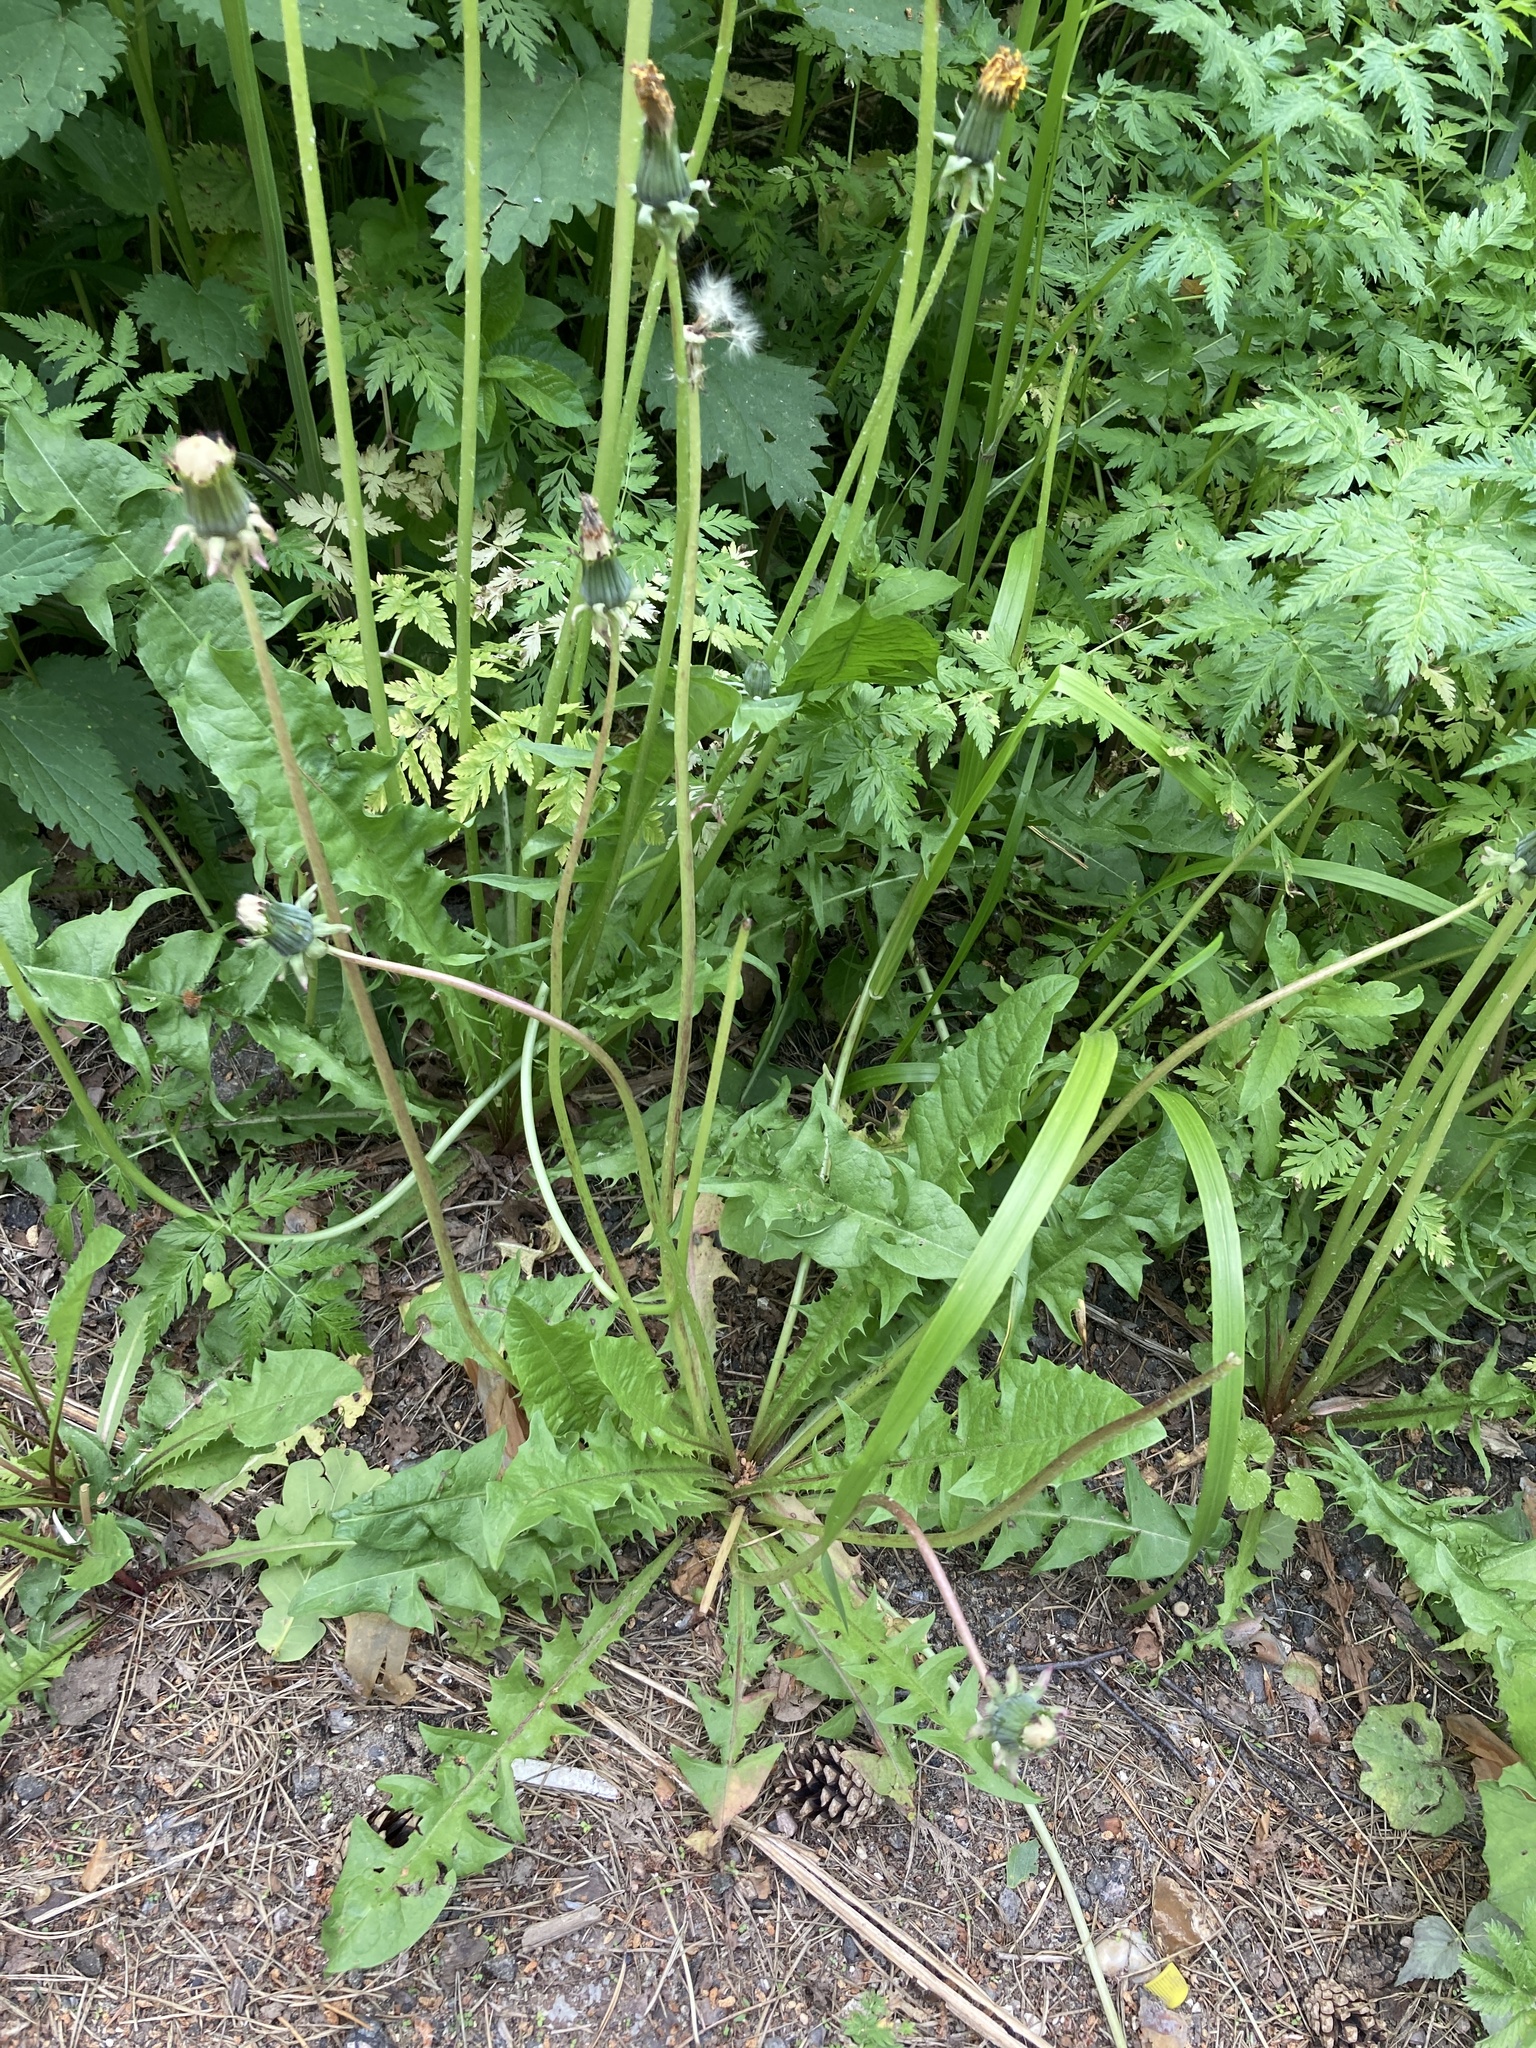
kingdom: Plantae
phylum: Tracheophyta
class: Magnoliopsida
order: Asterales
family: Asteraceae
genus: Taraxacum
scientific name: Taraxacum officinale
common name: Common dandelion
